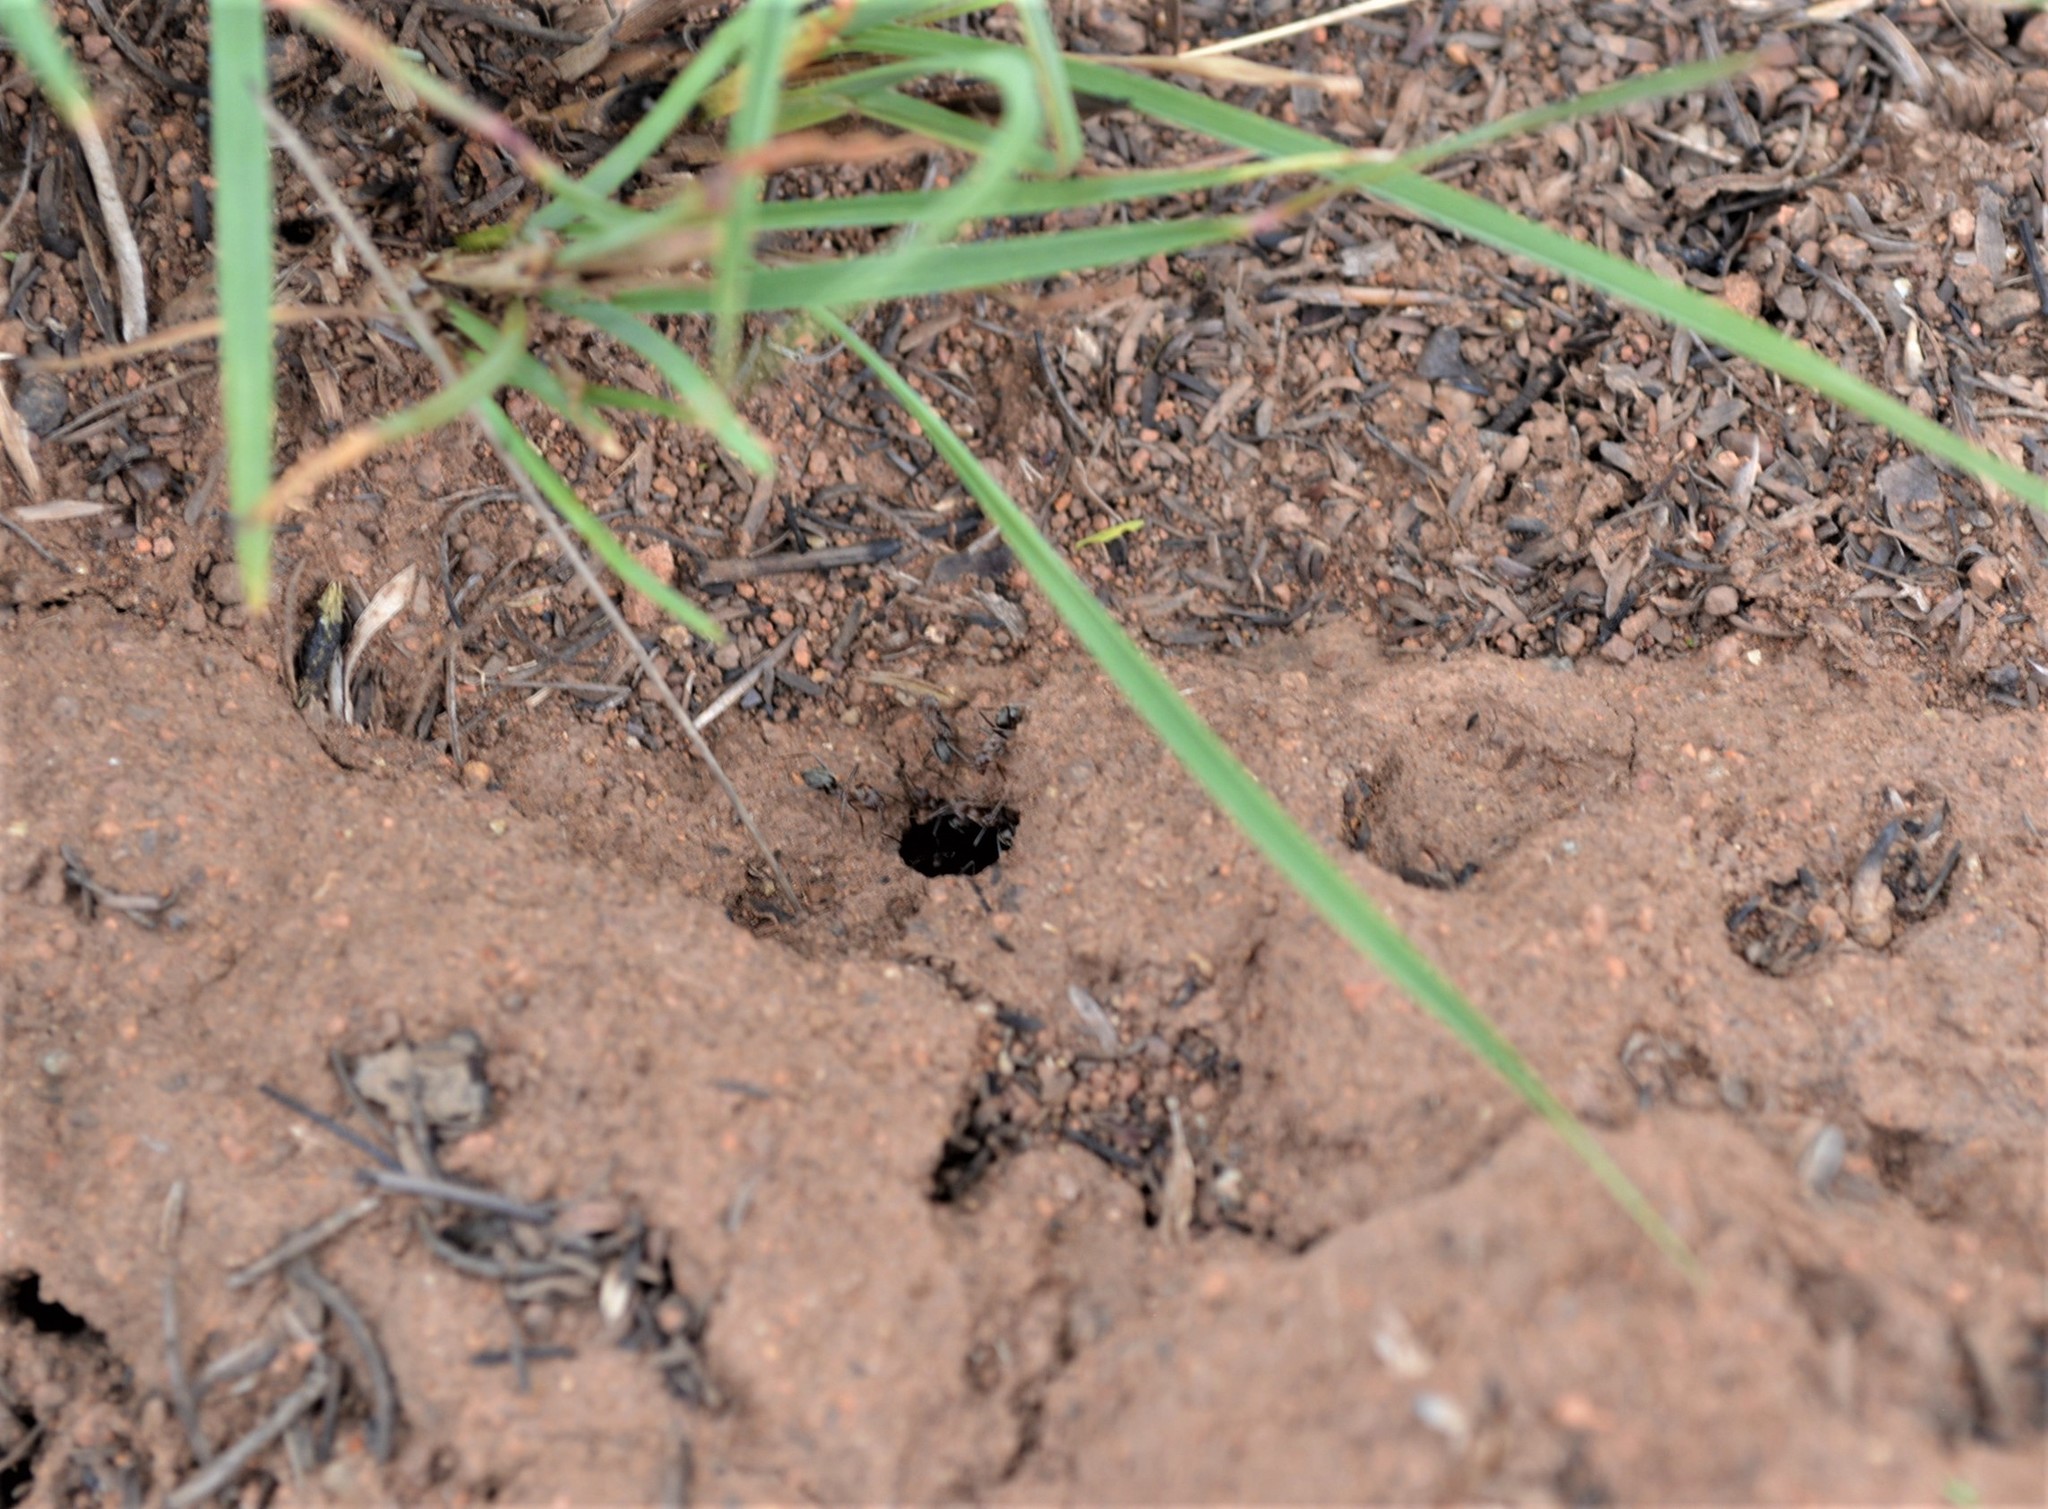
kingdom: Animalia
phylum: Arthropoda
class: Insecta
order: Hymenoptera
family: Formicidae
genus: Anoplolepis
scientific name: Anoplolepis custodiens
